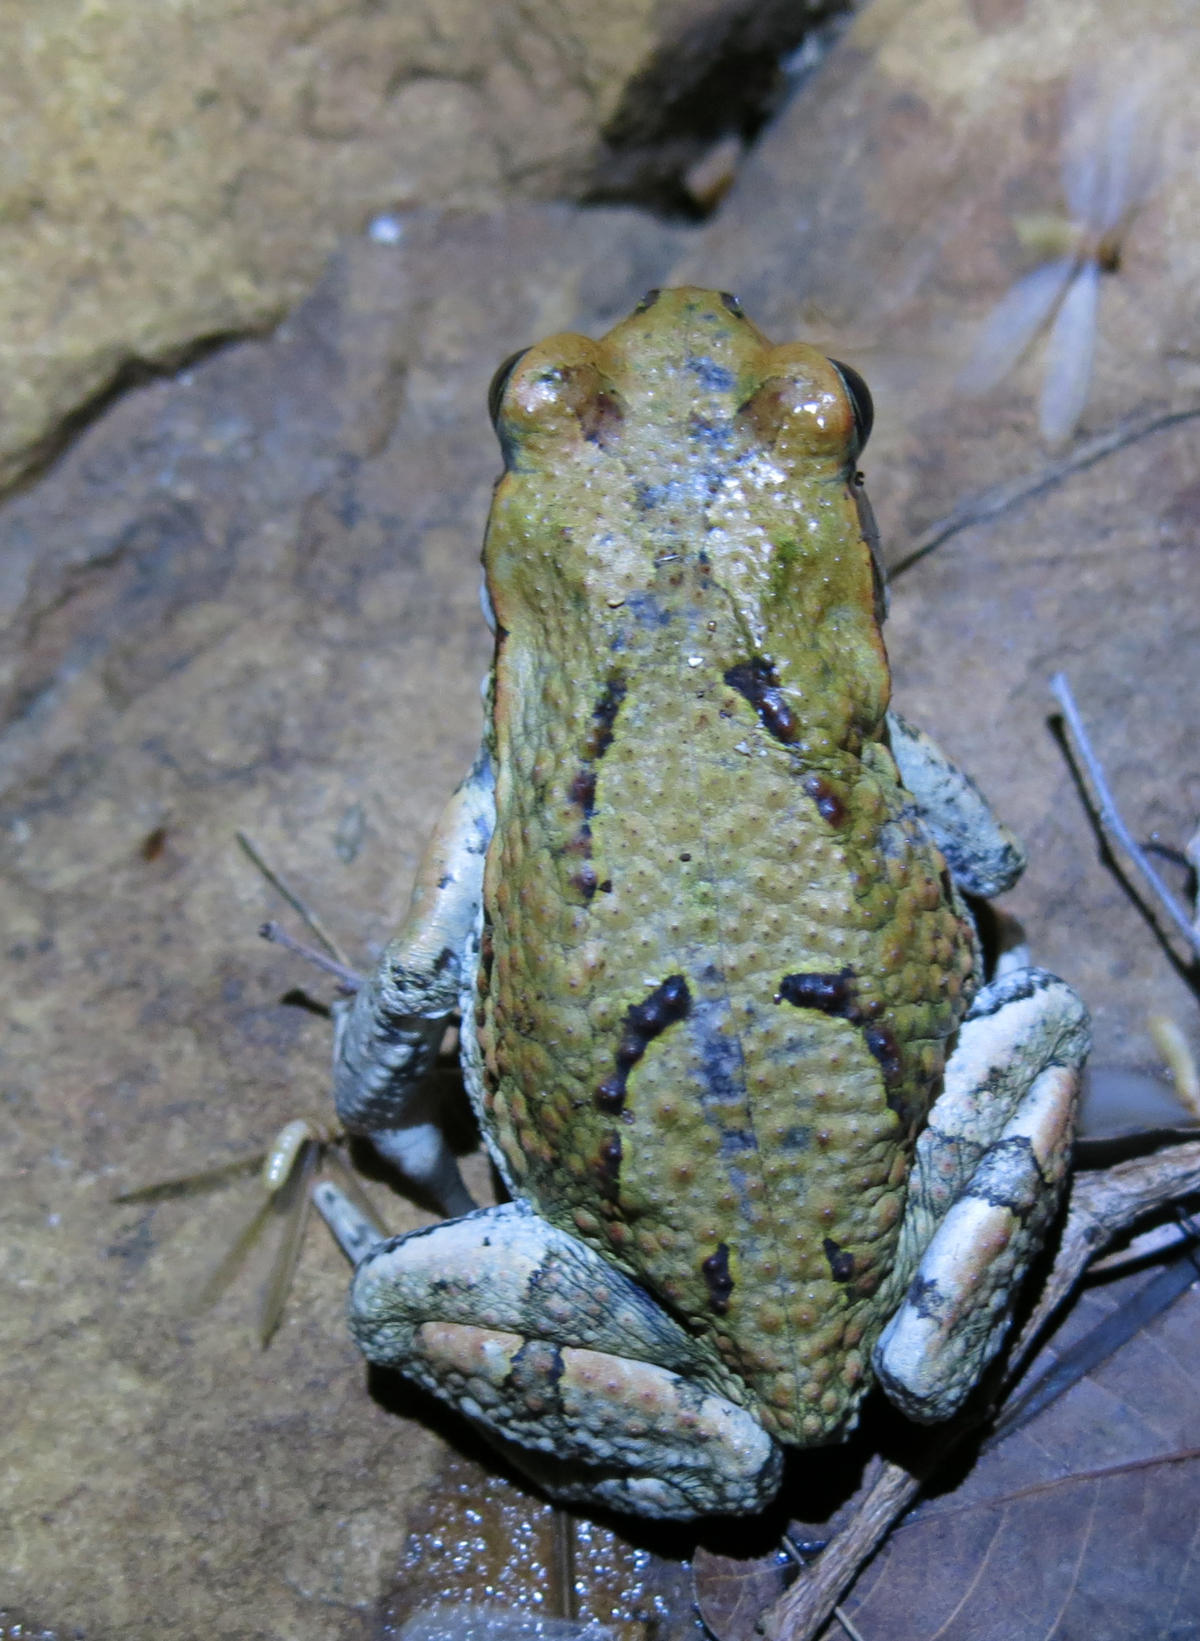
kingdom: Animalia
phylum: Chordata
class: Amphibia
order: Anura
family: Bufonidae
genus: Schismaderma
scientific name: Schismaderma carens
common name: African split-skin toad
